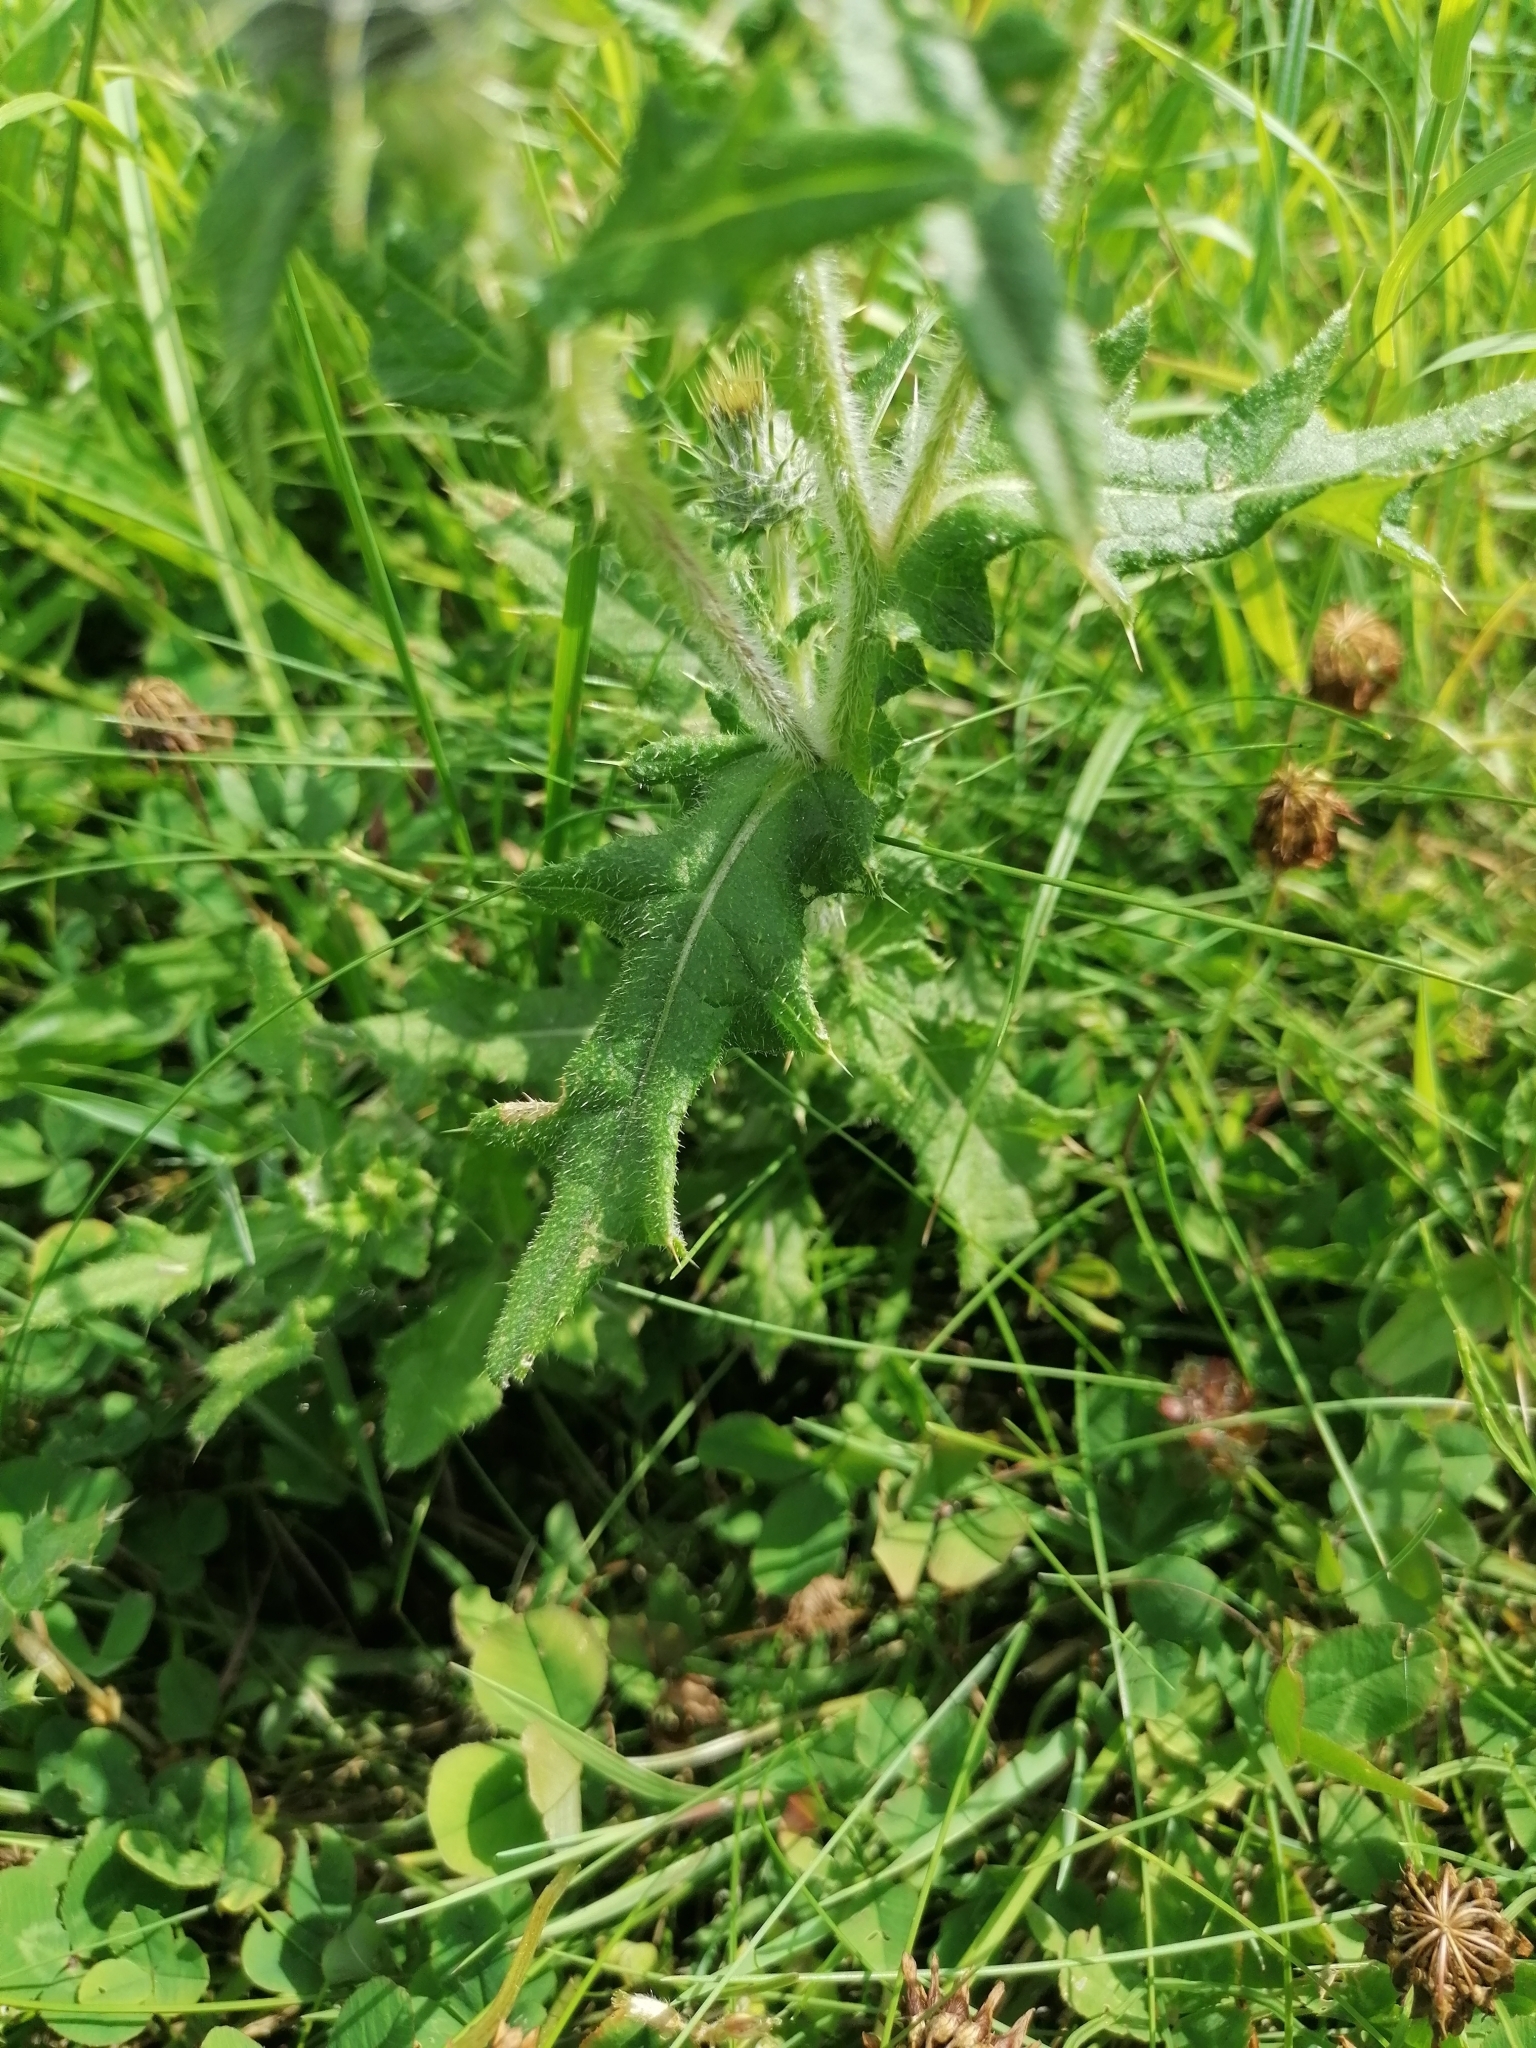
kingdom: Plantae
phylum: Tracheophyta
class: Magnoliopsida
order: Asterales
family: Asteraceae
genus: Cirsium
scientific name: Cirsium vulgare
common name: Bull thistle
